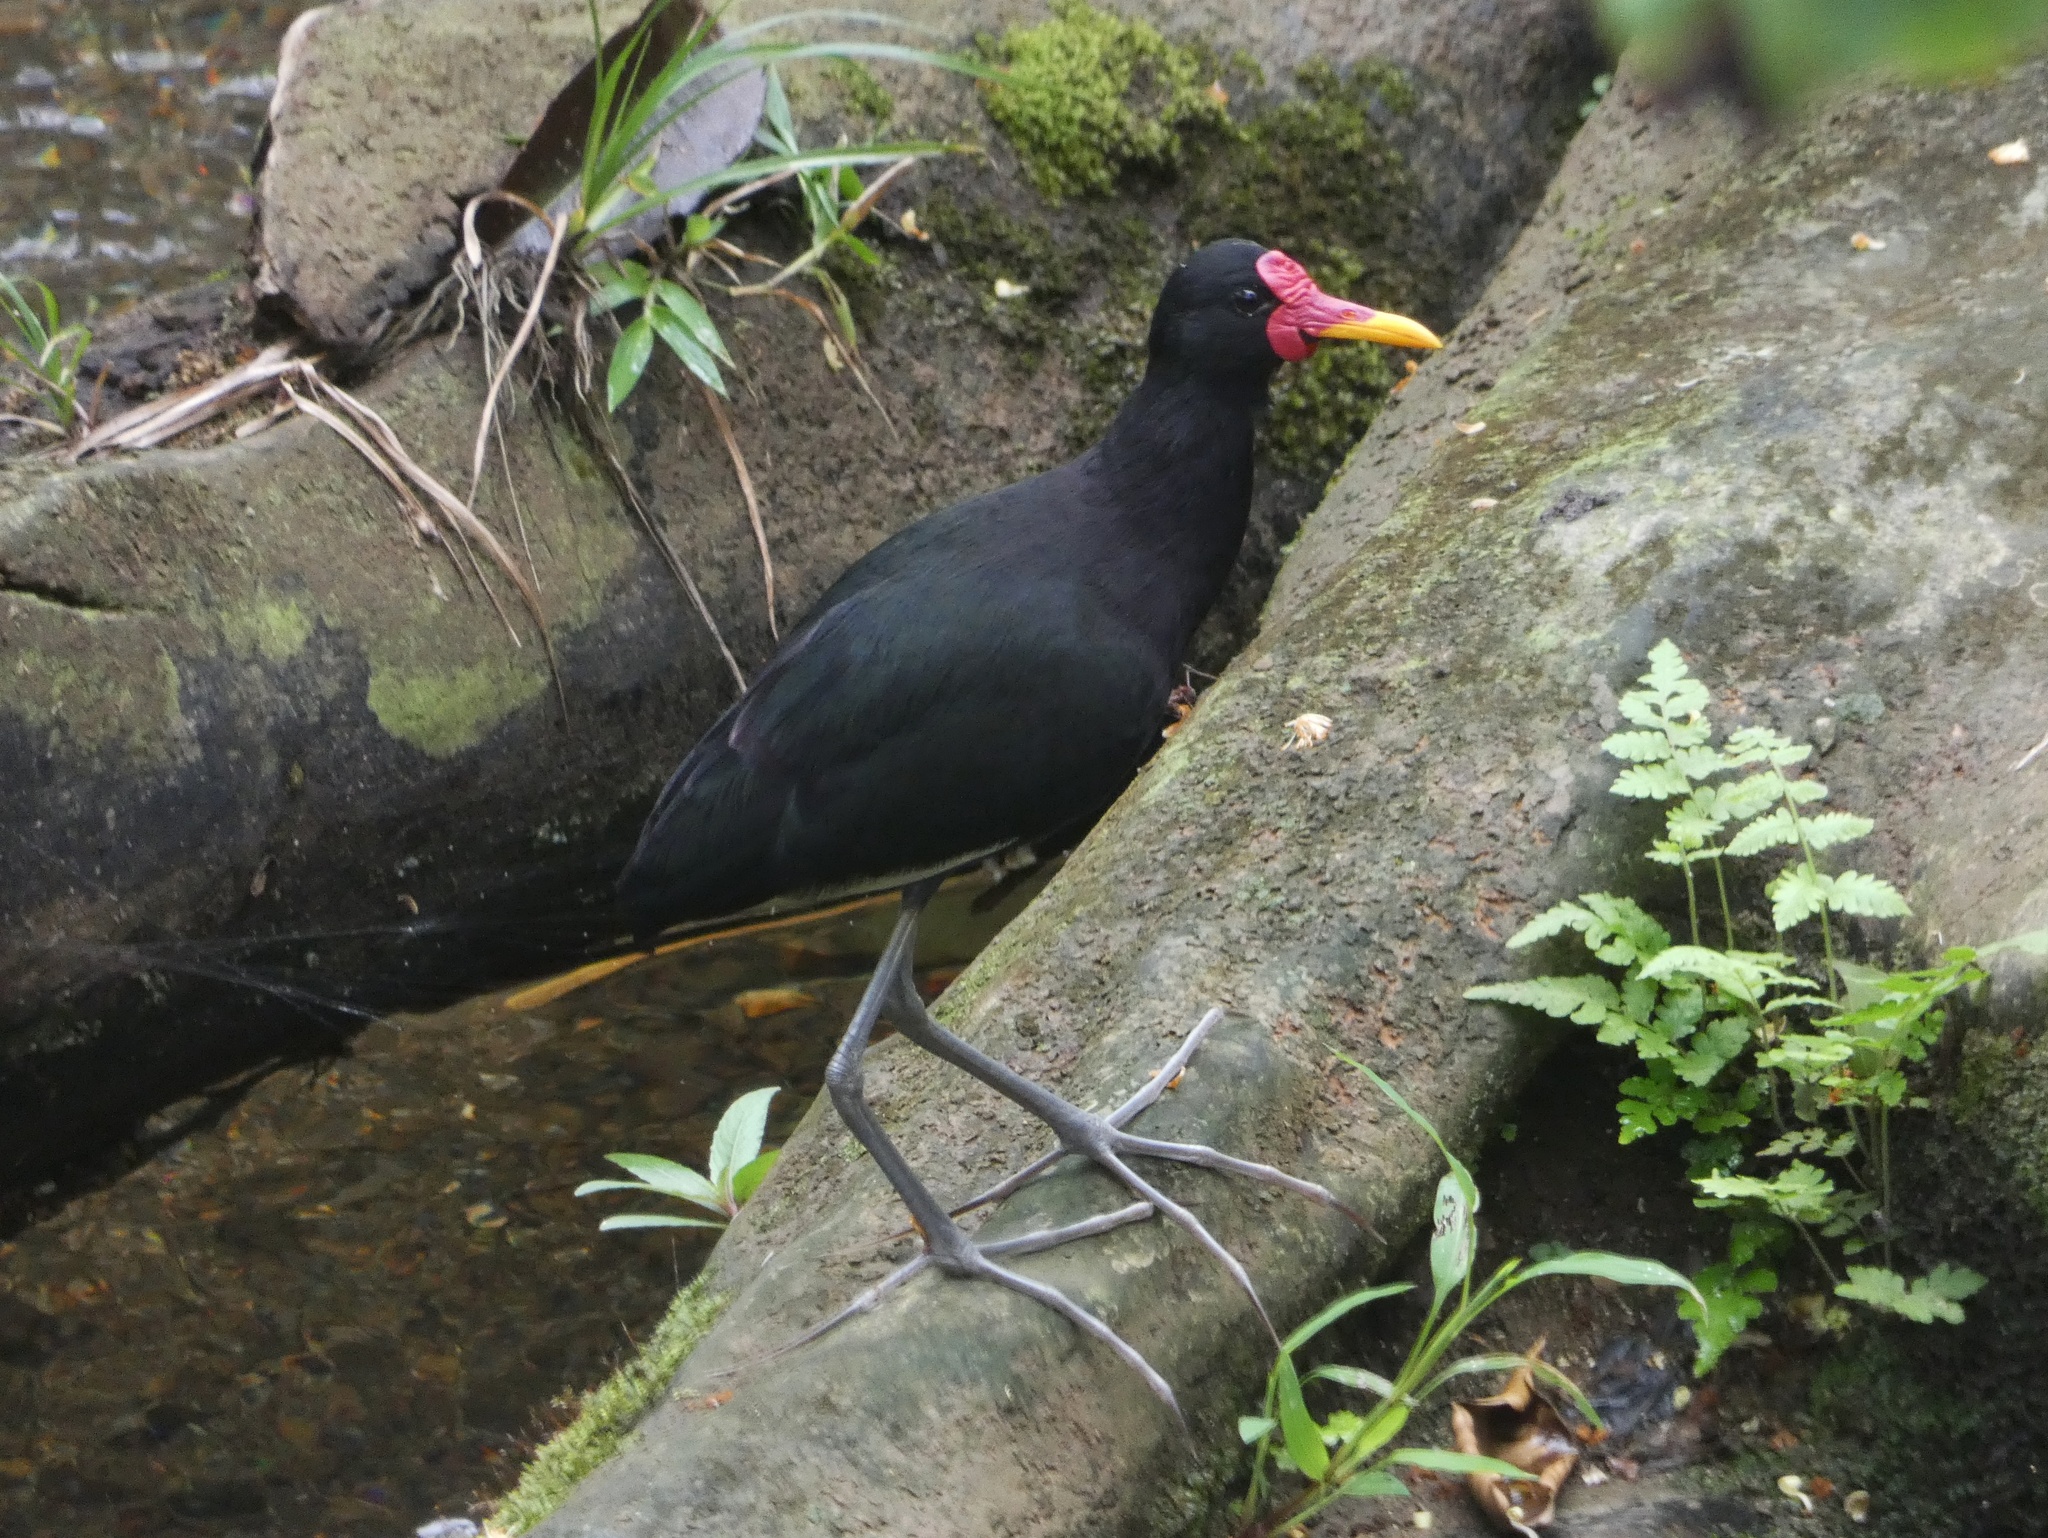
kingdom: Animalia
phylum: Chordata
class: Aves
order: Charadriiformes
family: Jacanidae
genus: Jacana
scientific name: Jacana jacana
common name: Wattled jacana
